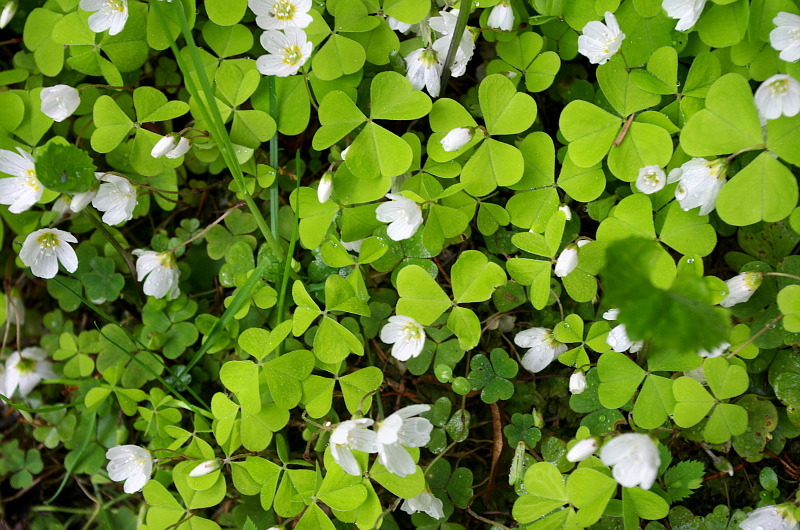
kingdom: Plantae
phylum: Tracheophyta
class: Magnoliopsida
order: Oxalidales
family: Oxalidaceae
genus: Oxalis
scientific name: Oxalis acetosella
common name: Wood-sorrel
